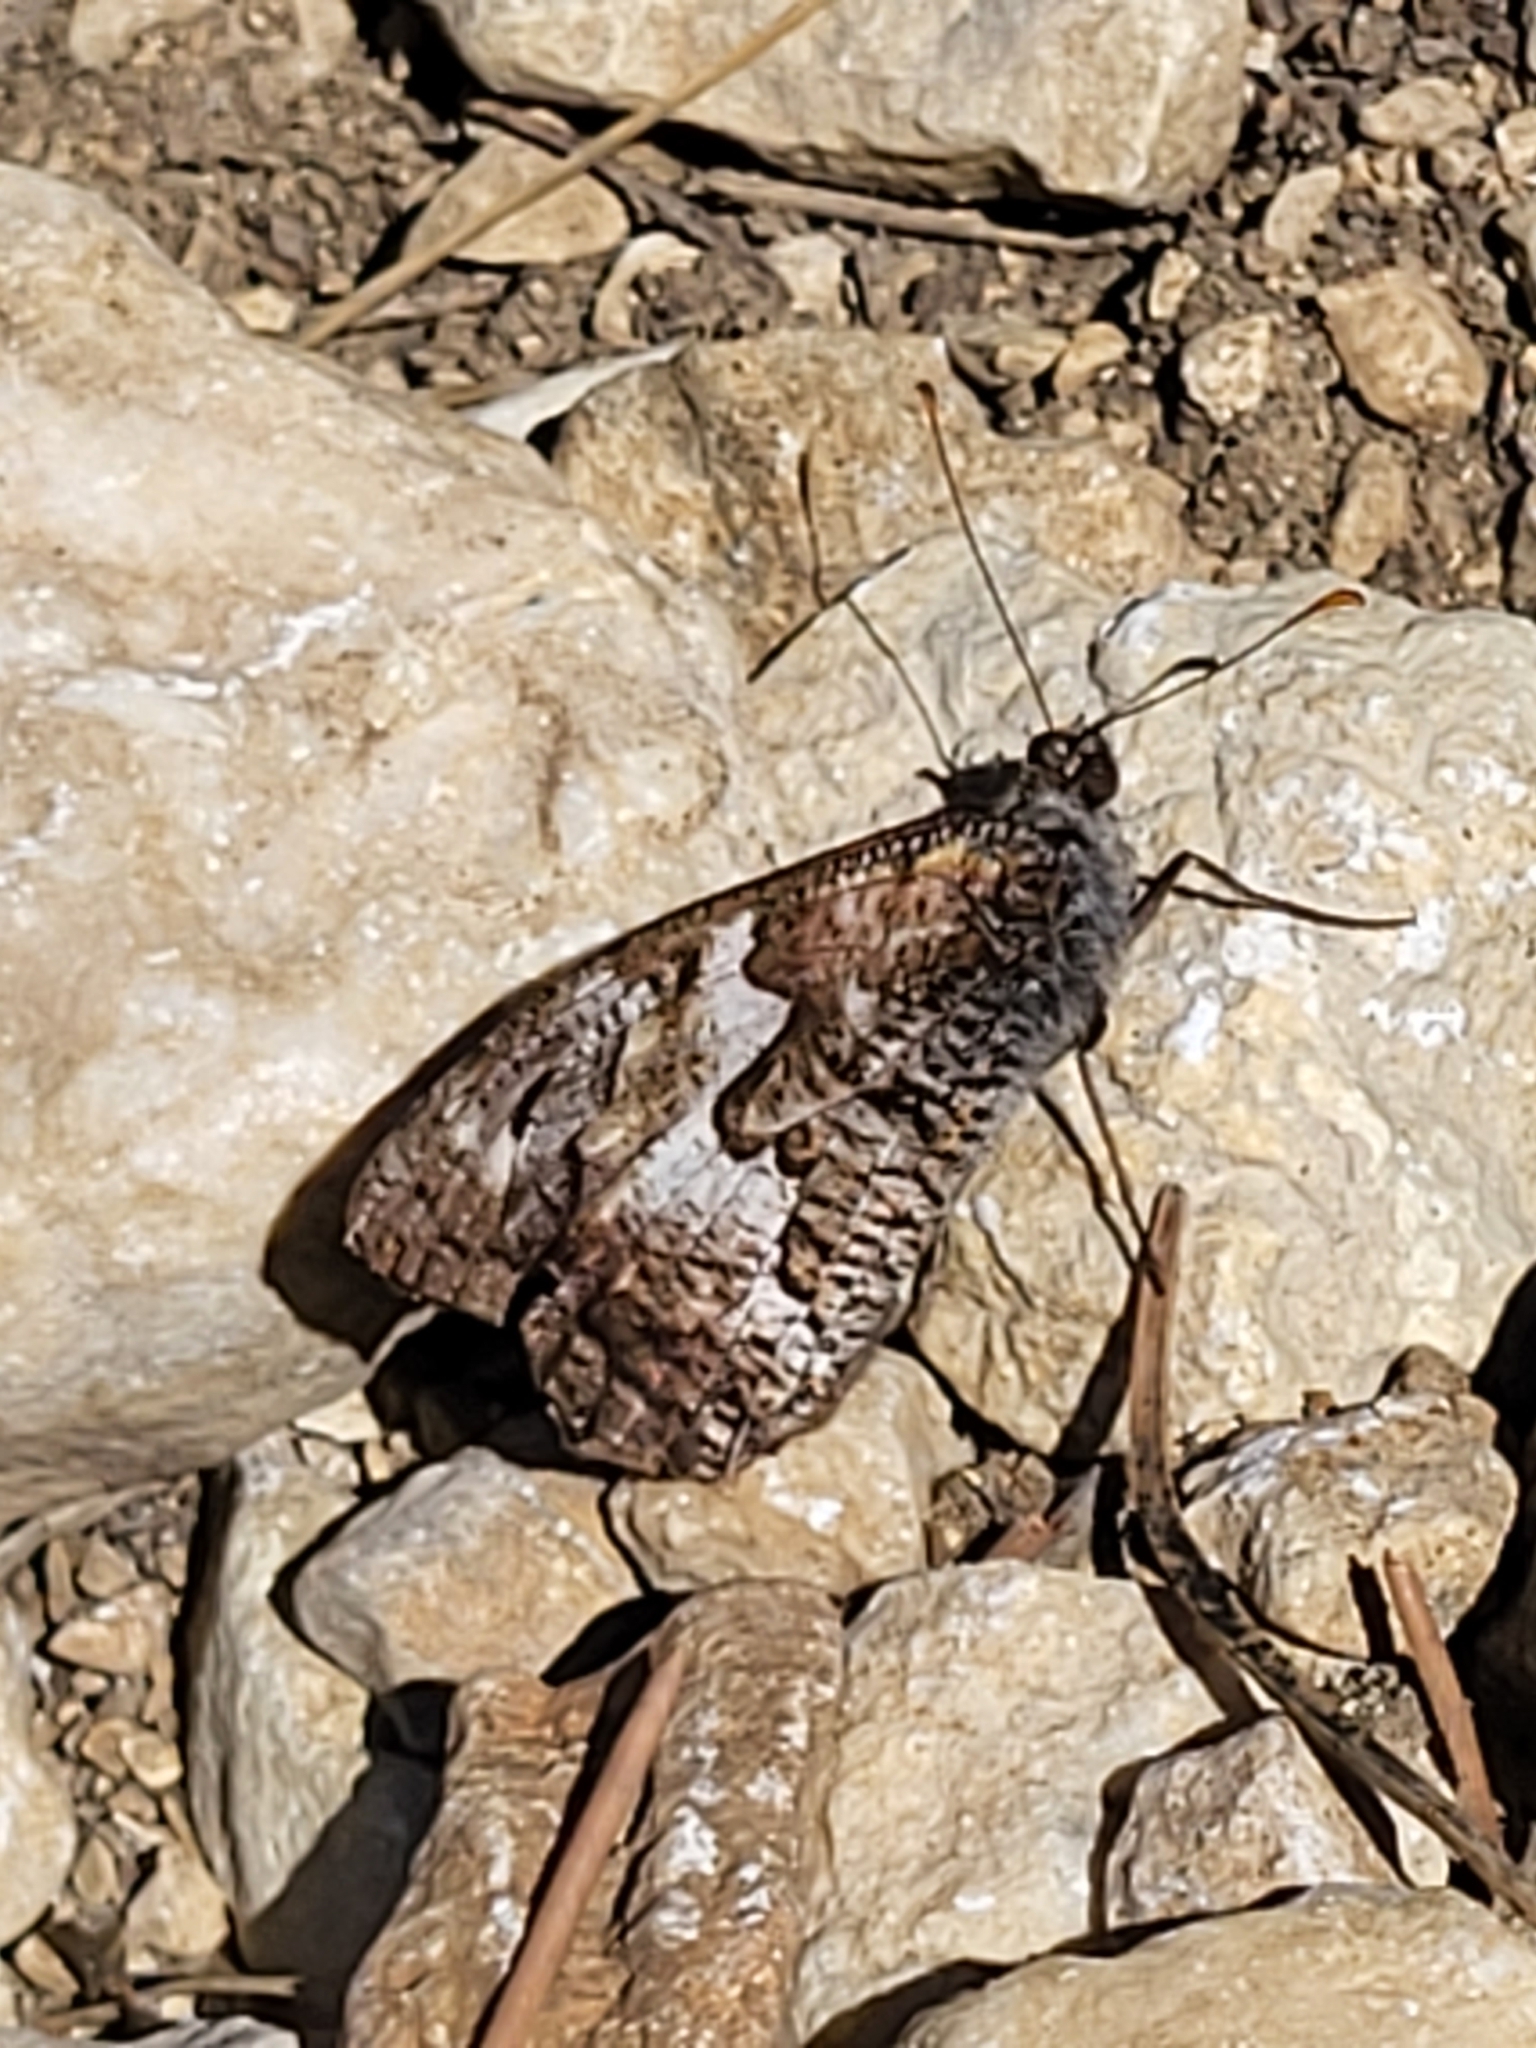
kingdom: Animalia
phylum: Arthropoda
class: Insecta
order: Lepidoptera
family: Nymphalidae
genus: Hipparchia
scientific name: Hipparchia semele
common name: Grayling
